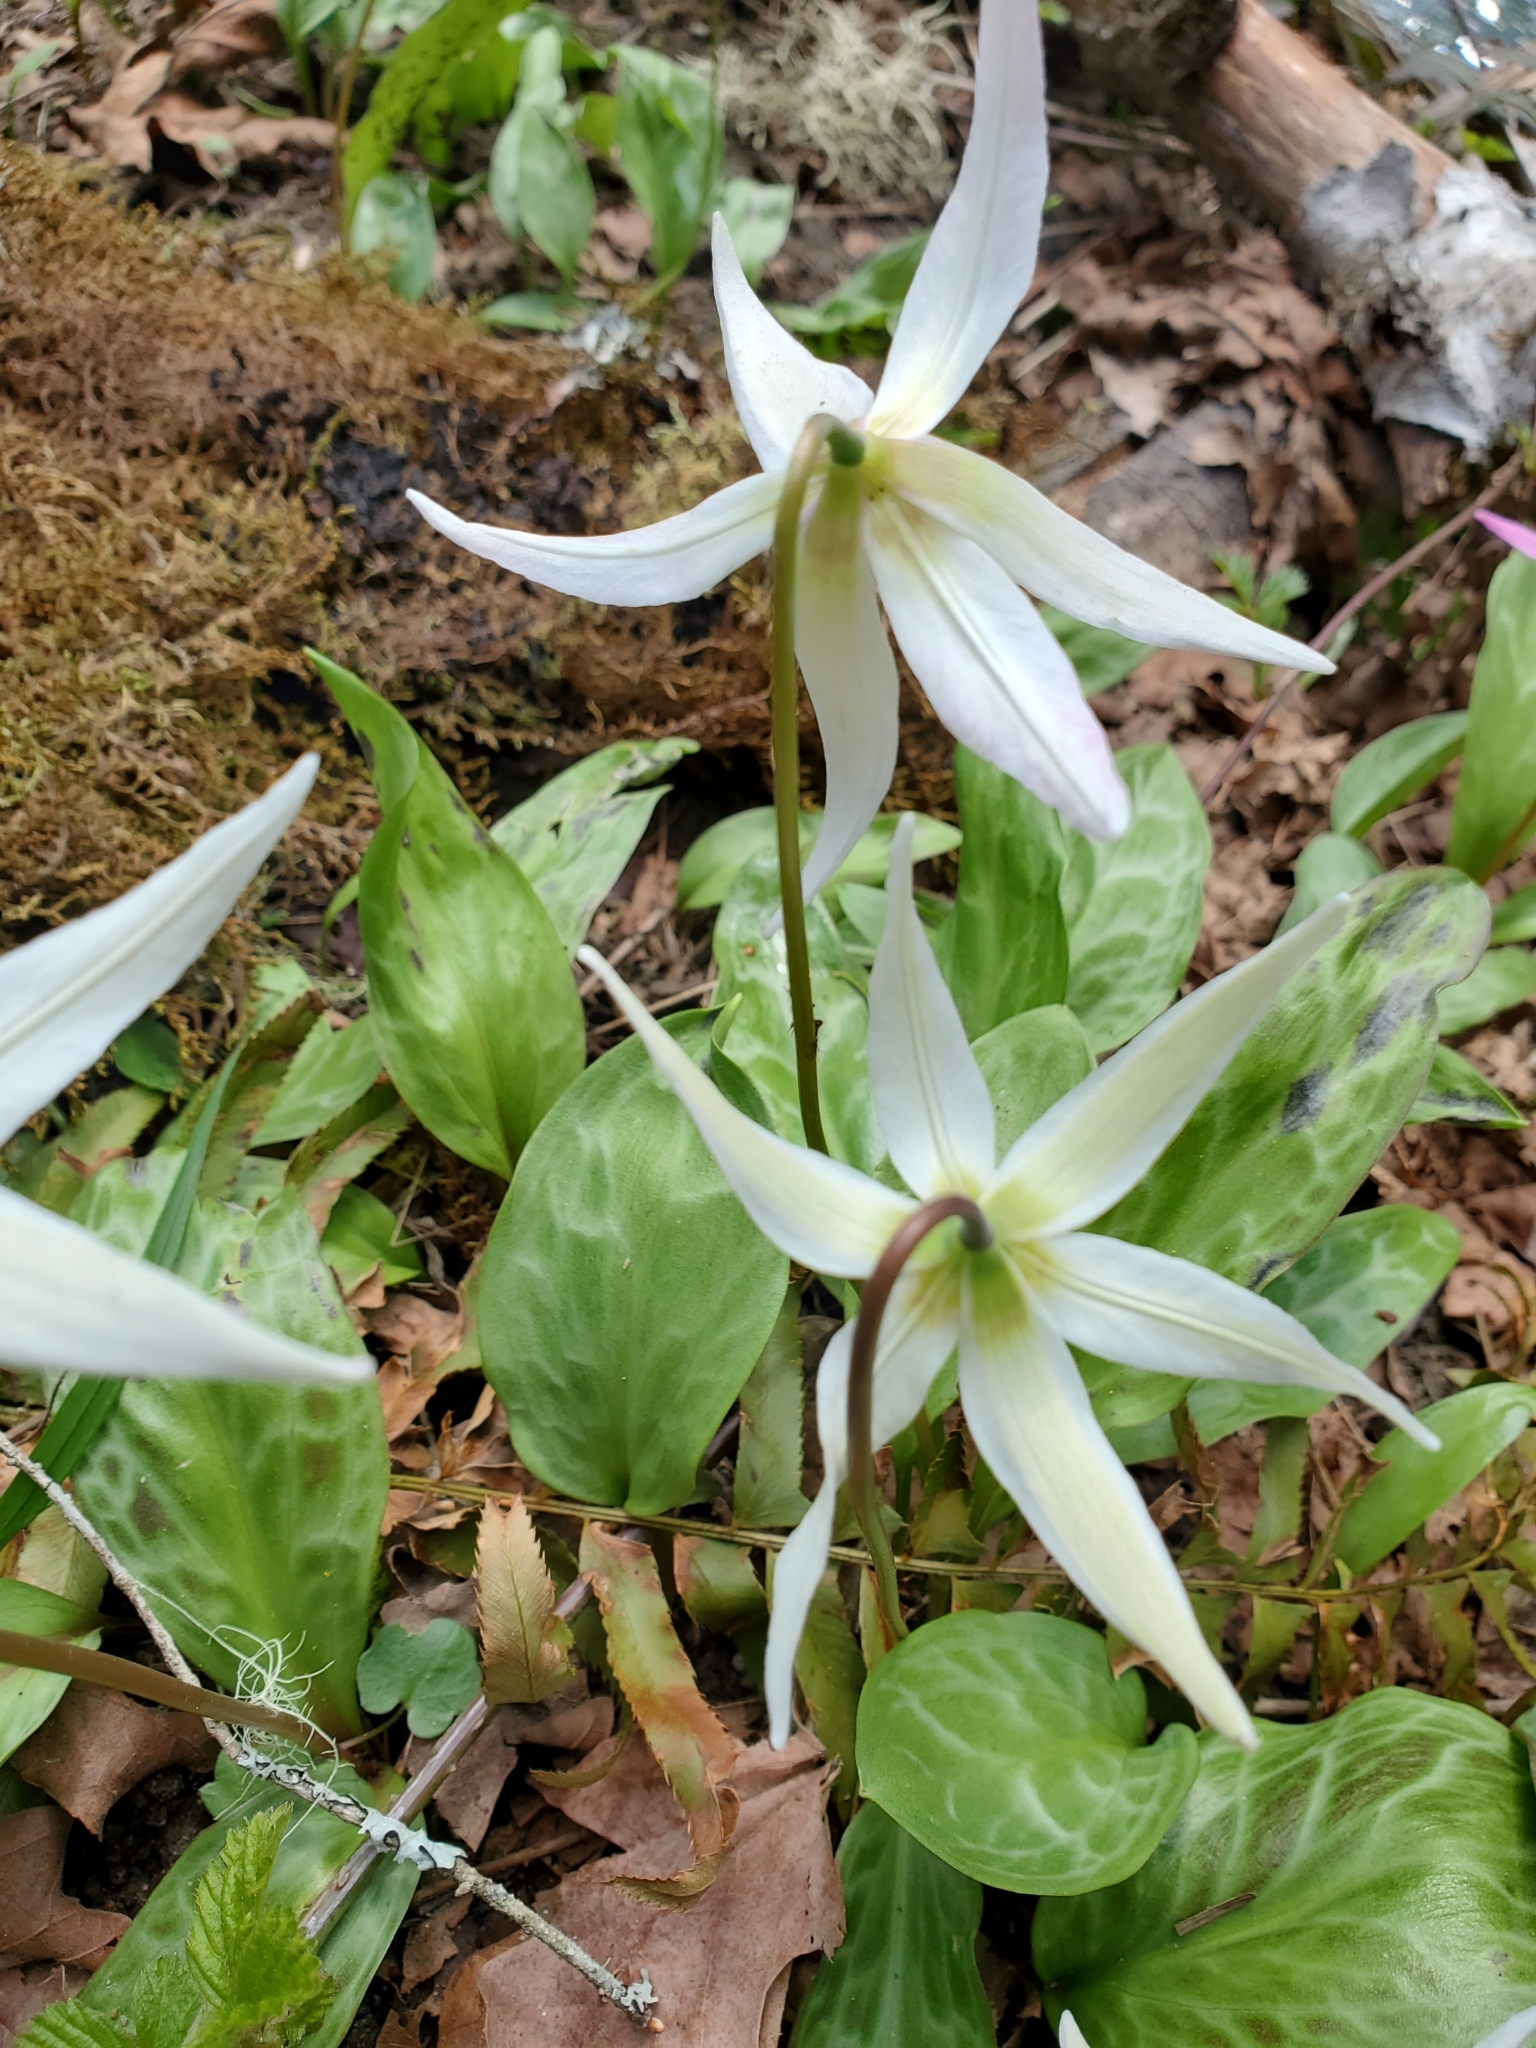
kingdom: Plantae
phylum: Tracheophyta
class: Liliopsida
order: Liliales
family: Liliaceae
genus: Erythronium
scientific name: Erythronium oregonum
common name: Giant adder's-tongue
